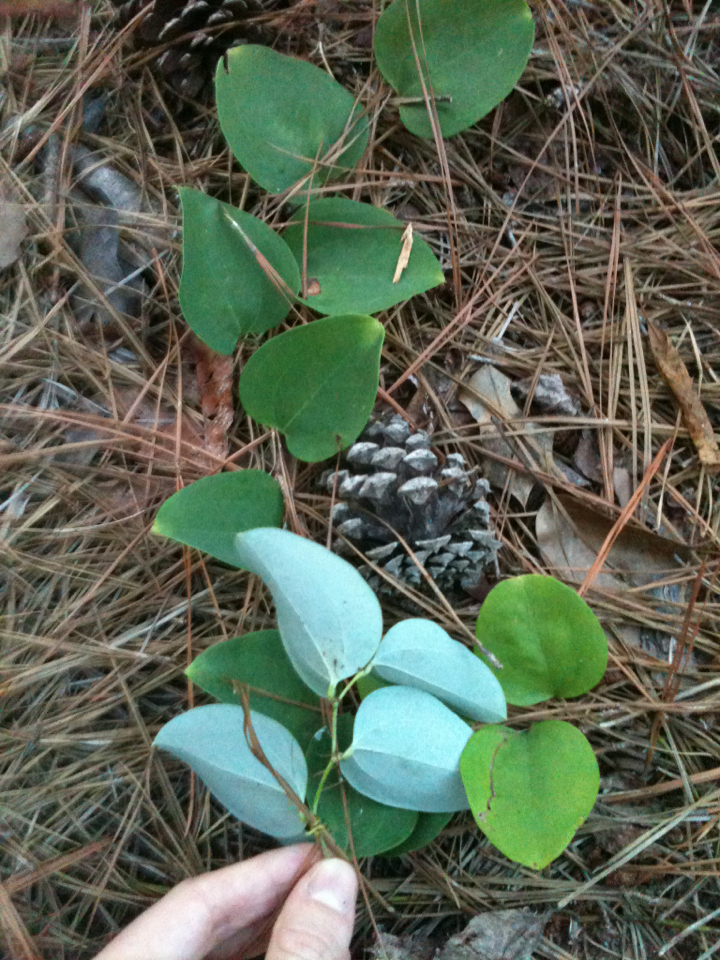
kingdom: Plantae
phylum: Tracheophyta
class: Liliopsida
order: Liliales
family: Smilacaceae
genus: Smilax
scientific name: Smilax glauca
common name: Cat greenbrier
